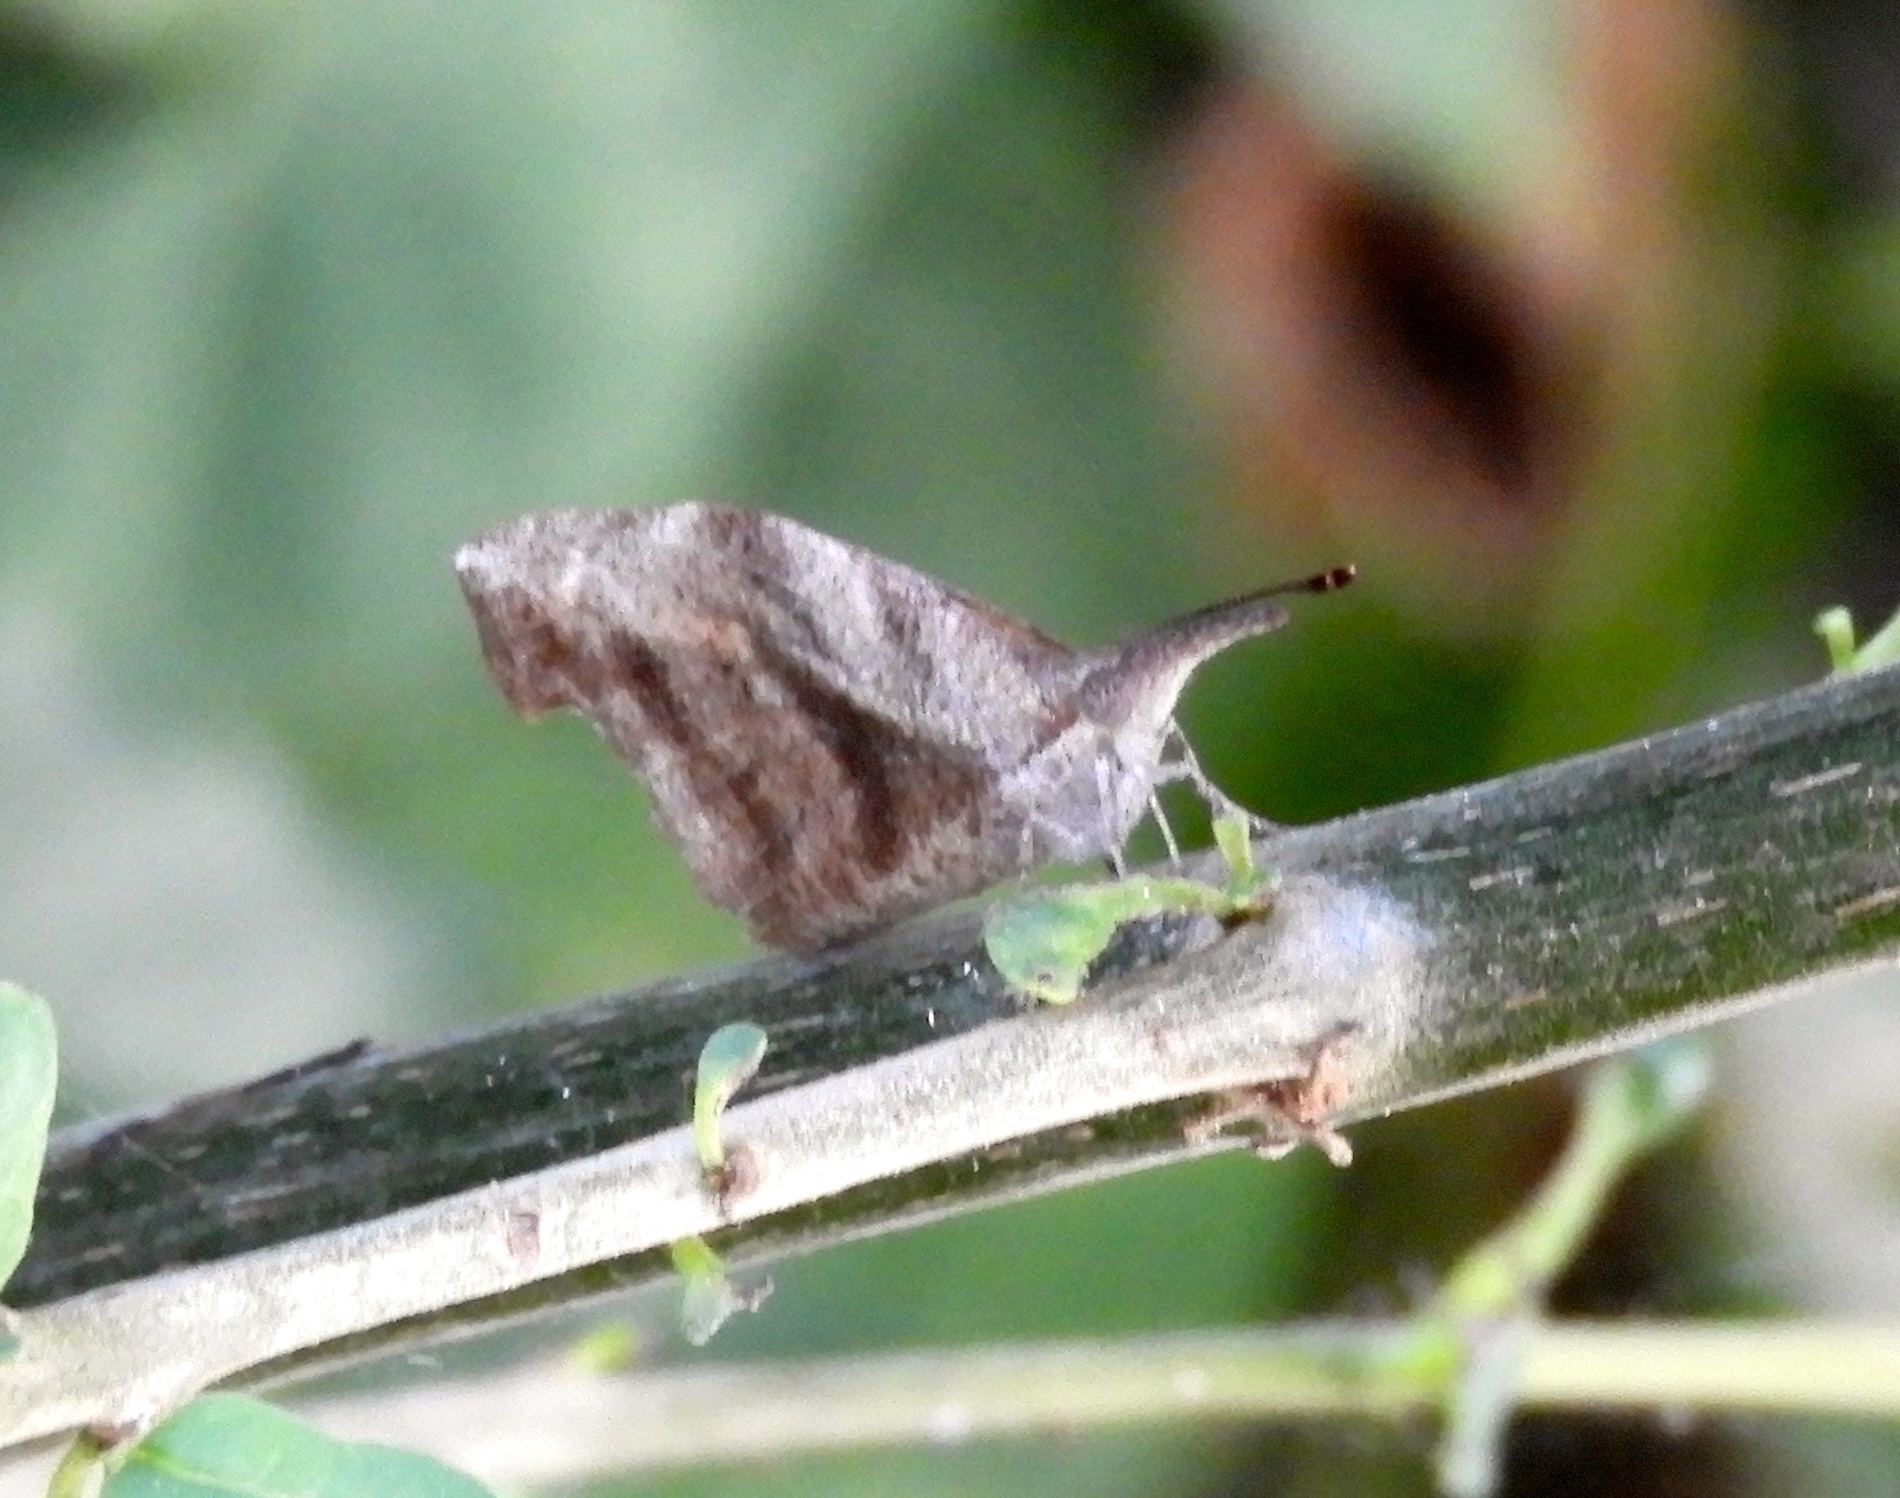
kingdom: Animalia
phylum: Arthropoda
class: Insecta
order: Lepidoptera
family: Nymphalidae
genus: Libytheana
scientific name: Libytheana carinenta
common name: American snout
